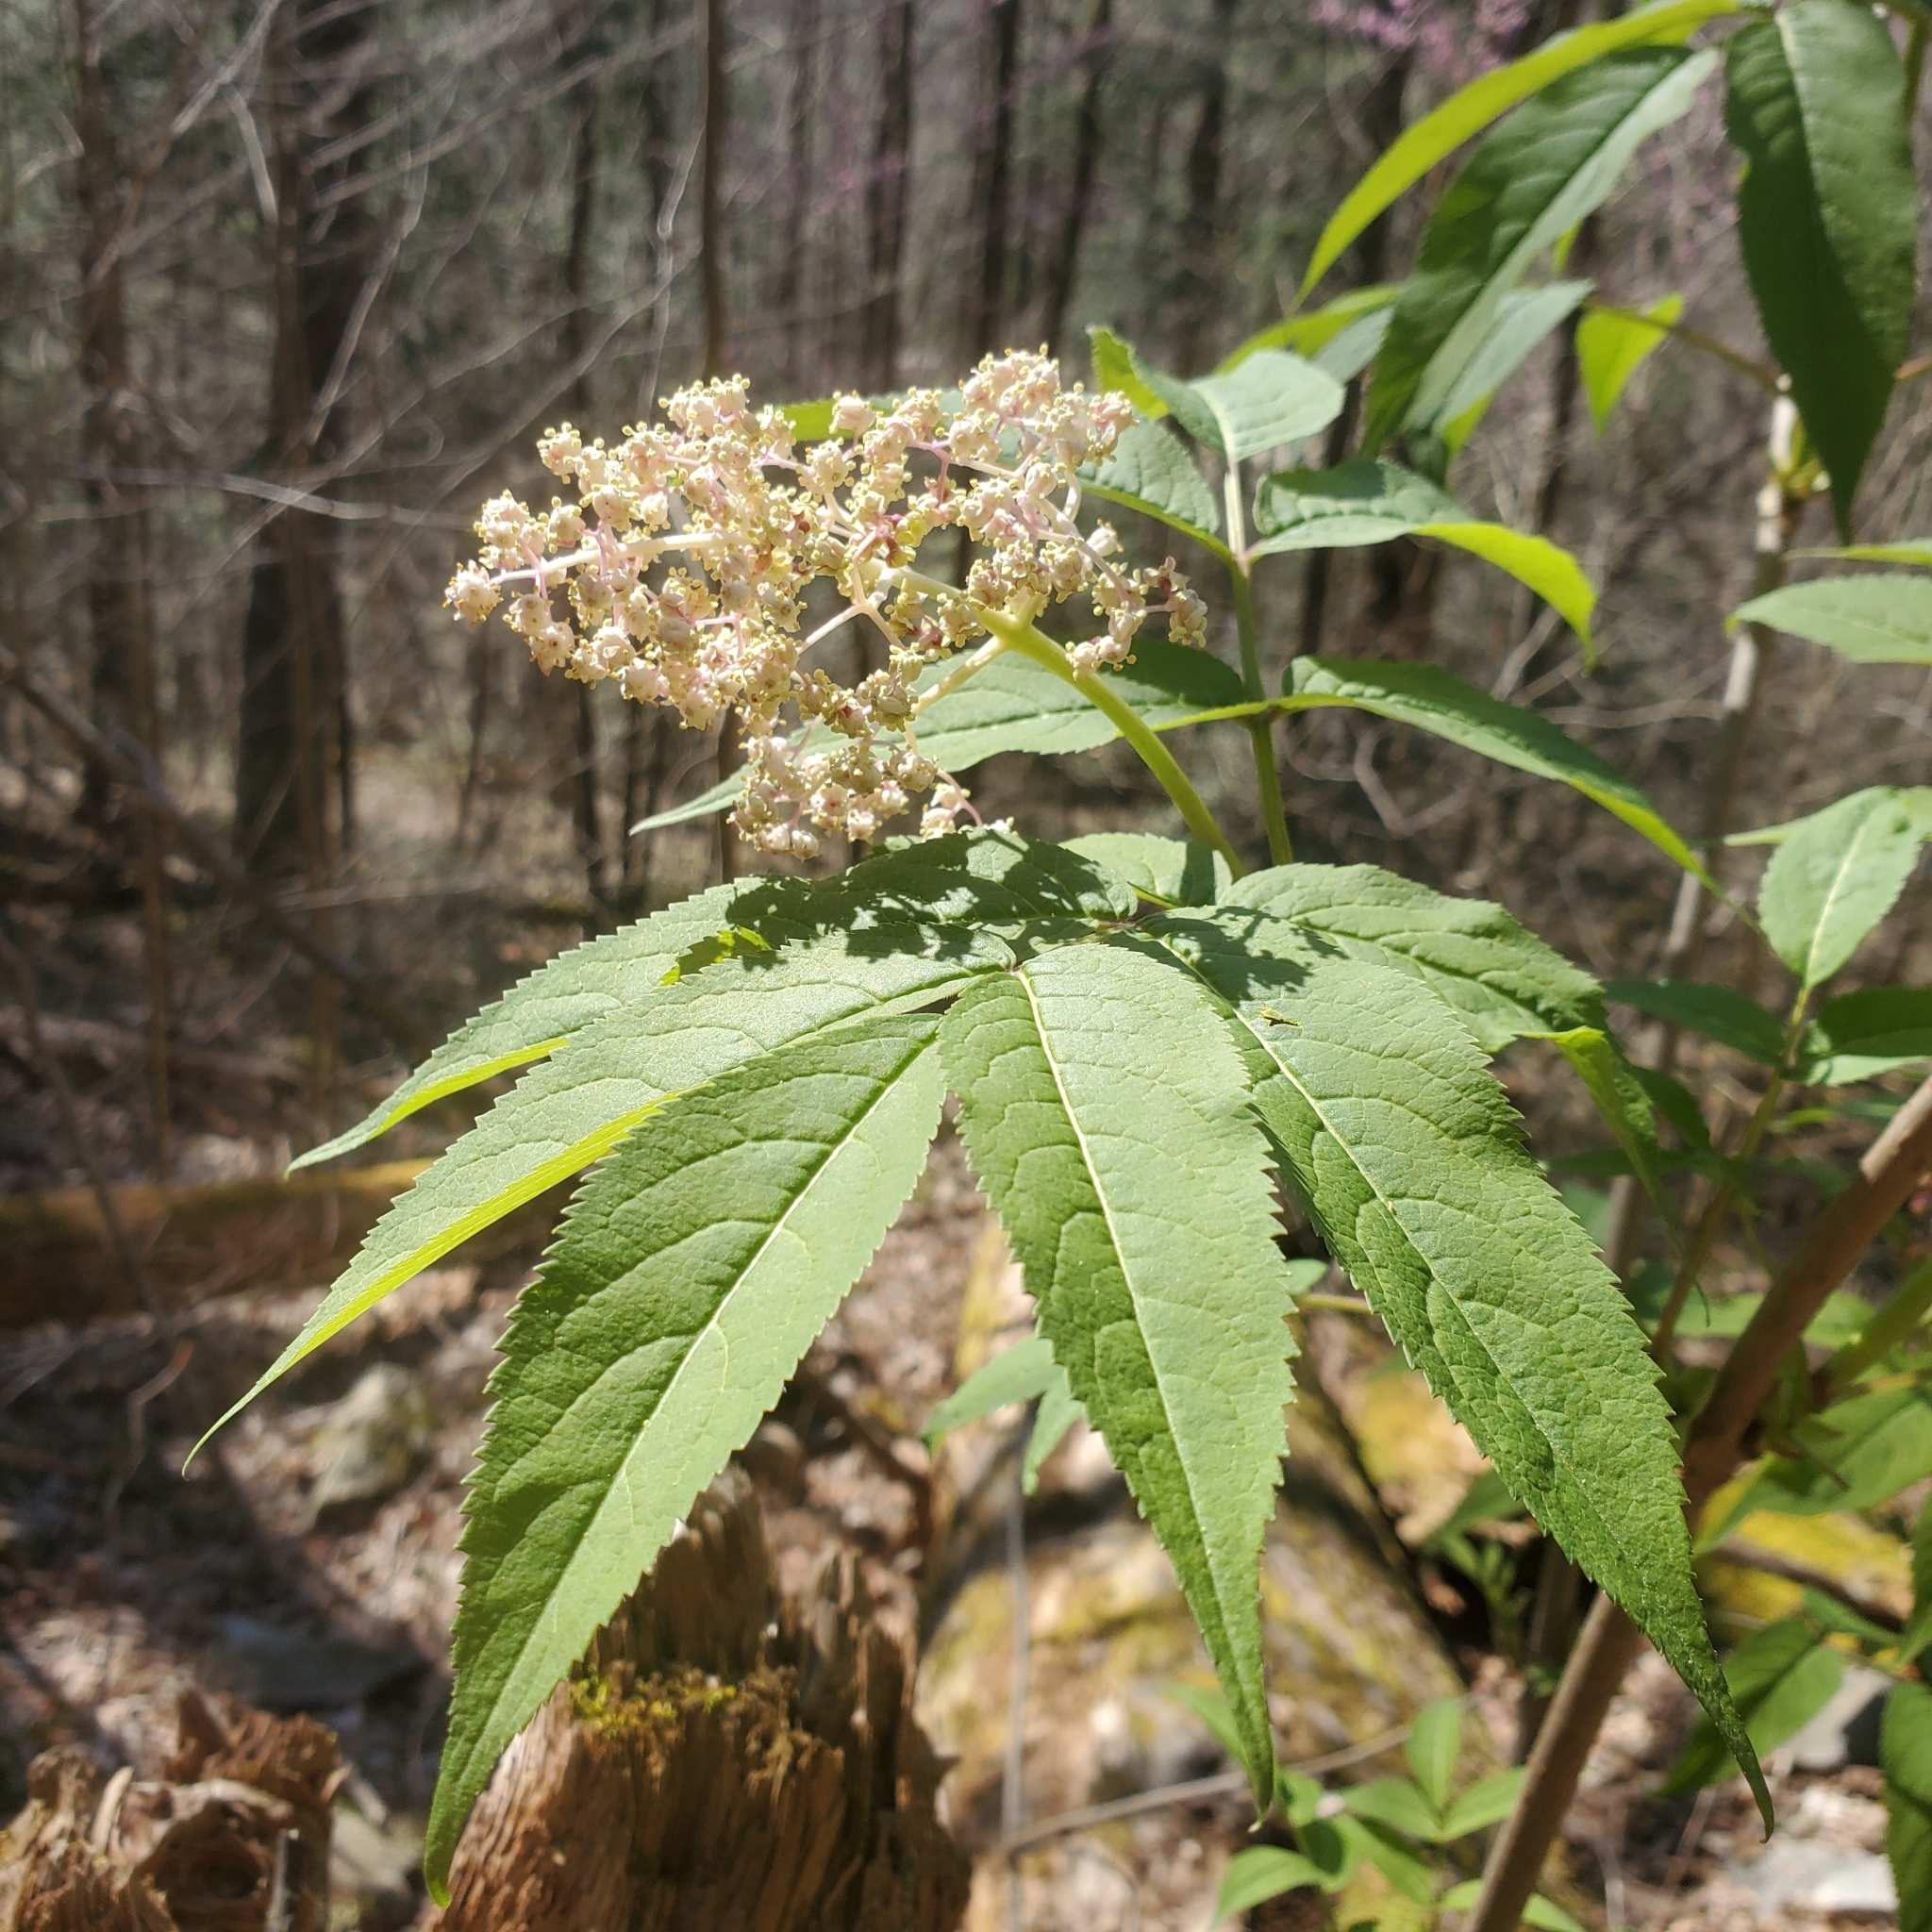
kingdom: Plantae
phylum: Tracheophyta
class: Magnoliopsida
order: Dipsacales
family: Viburnaceae
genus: Sambucus
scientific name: Sambucus racemosa
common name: Red-berried elder
